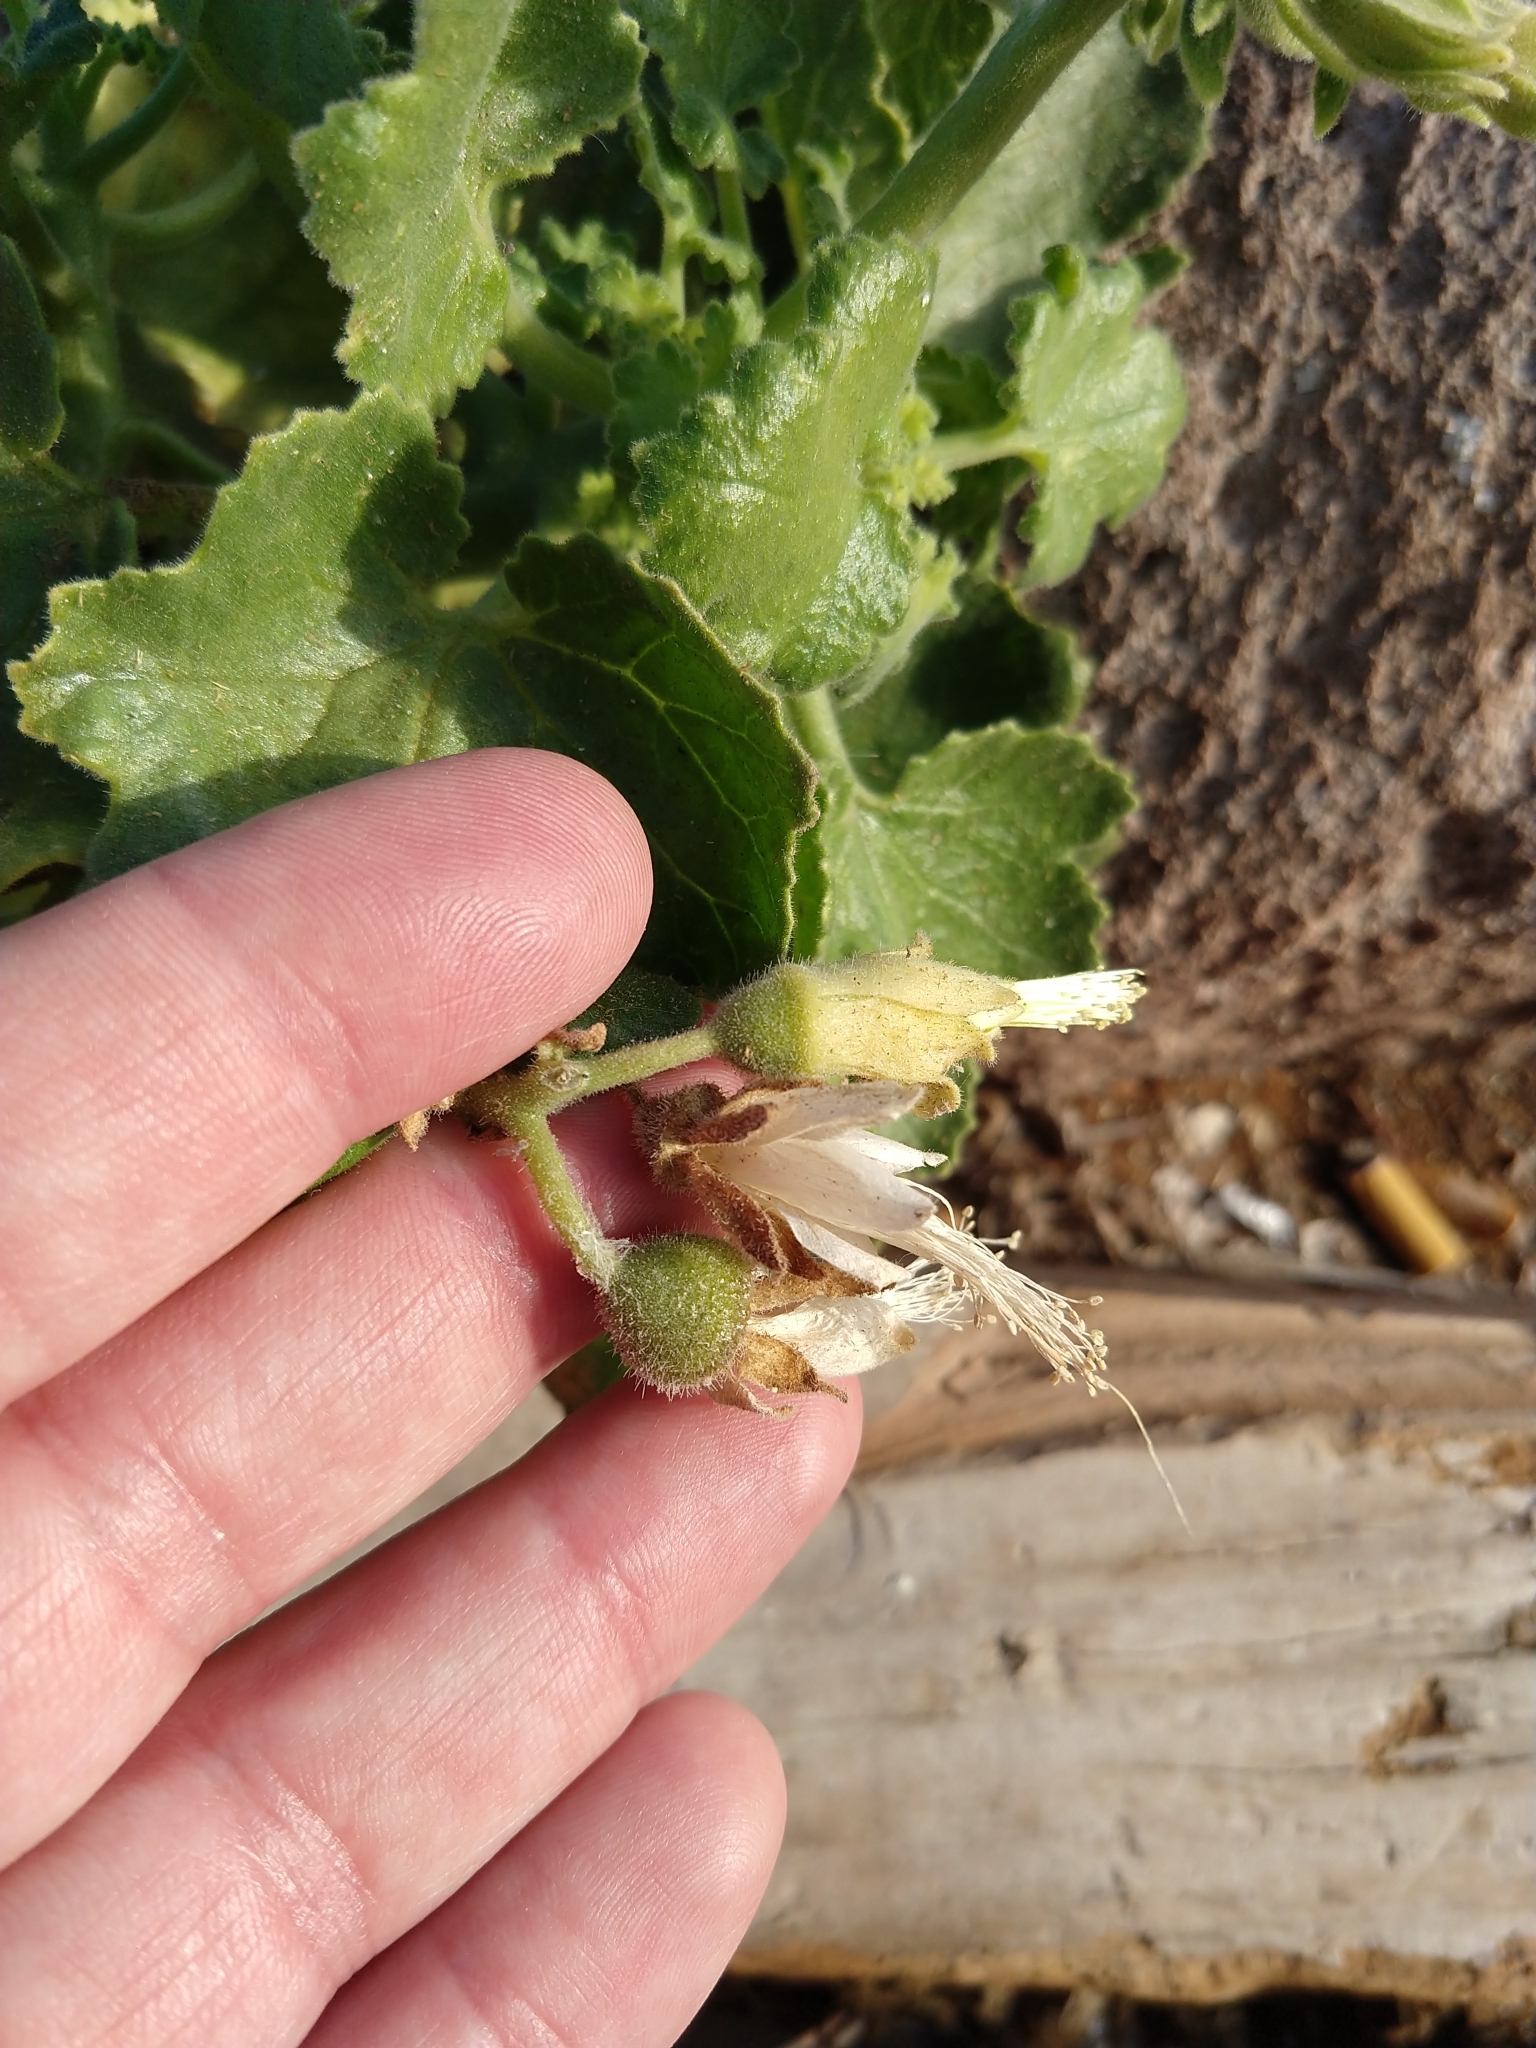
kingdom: Plantae
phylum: Tracheophyta
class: Magnoliopsida
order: Cornales
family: Loasaceae
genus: Eucnide
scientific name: Eucnide cordata
